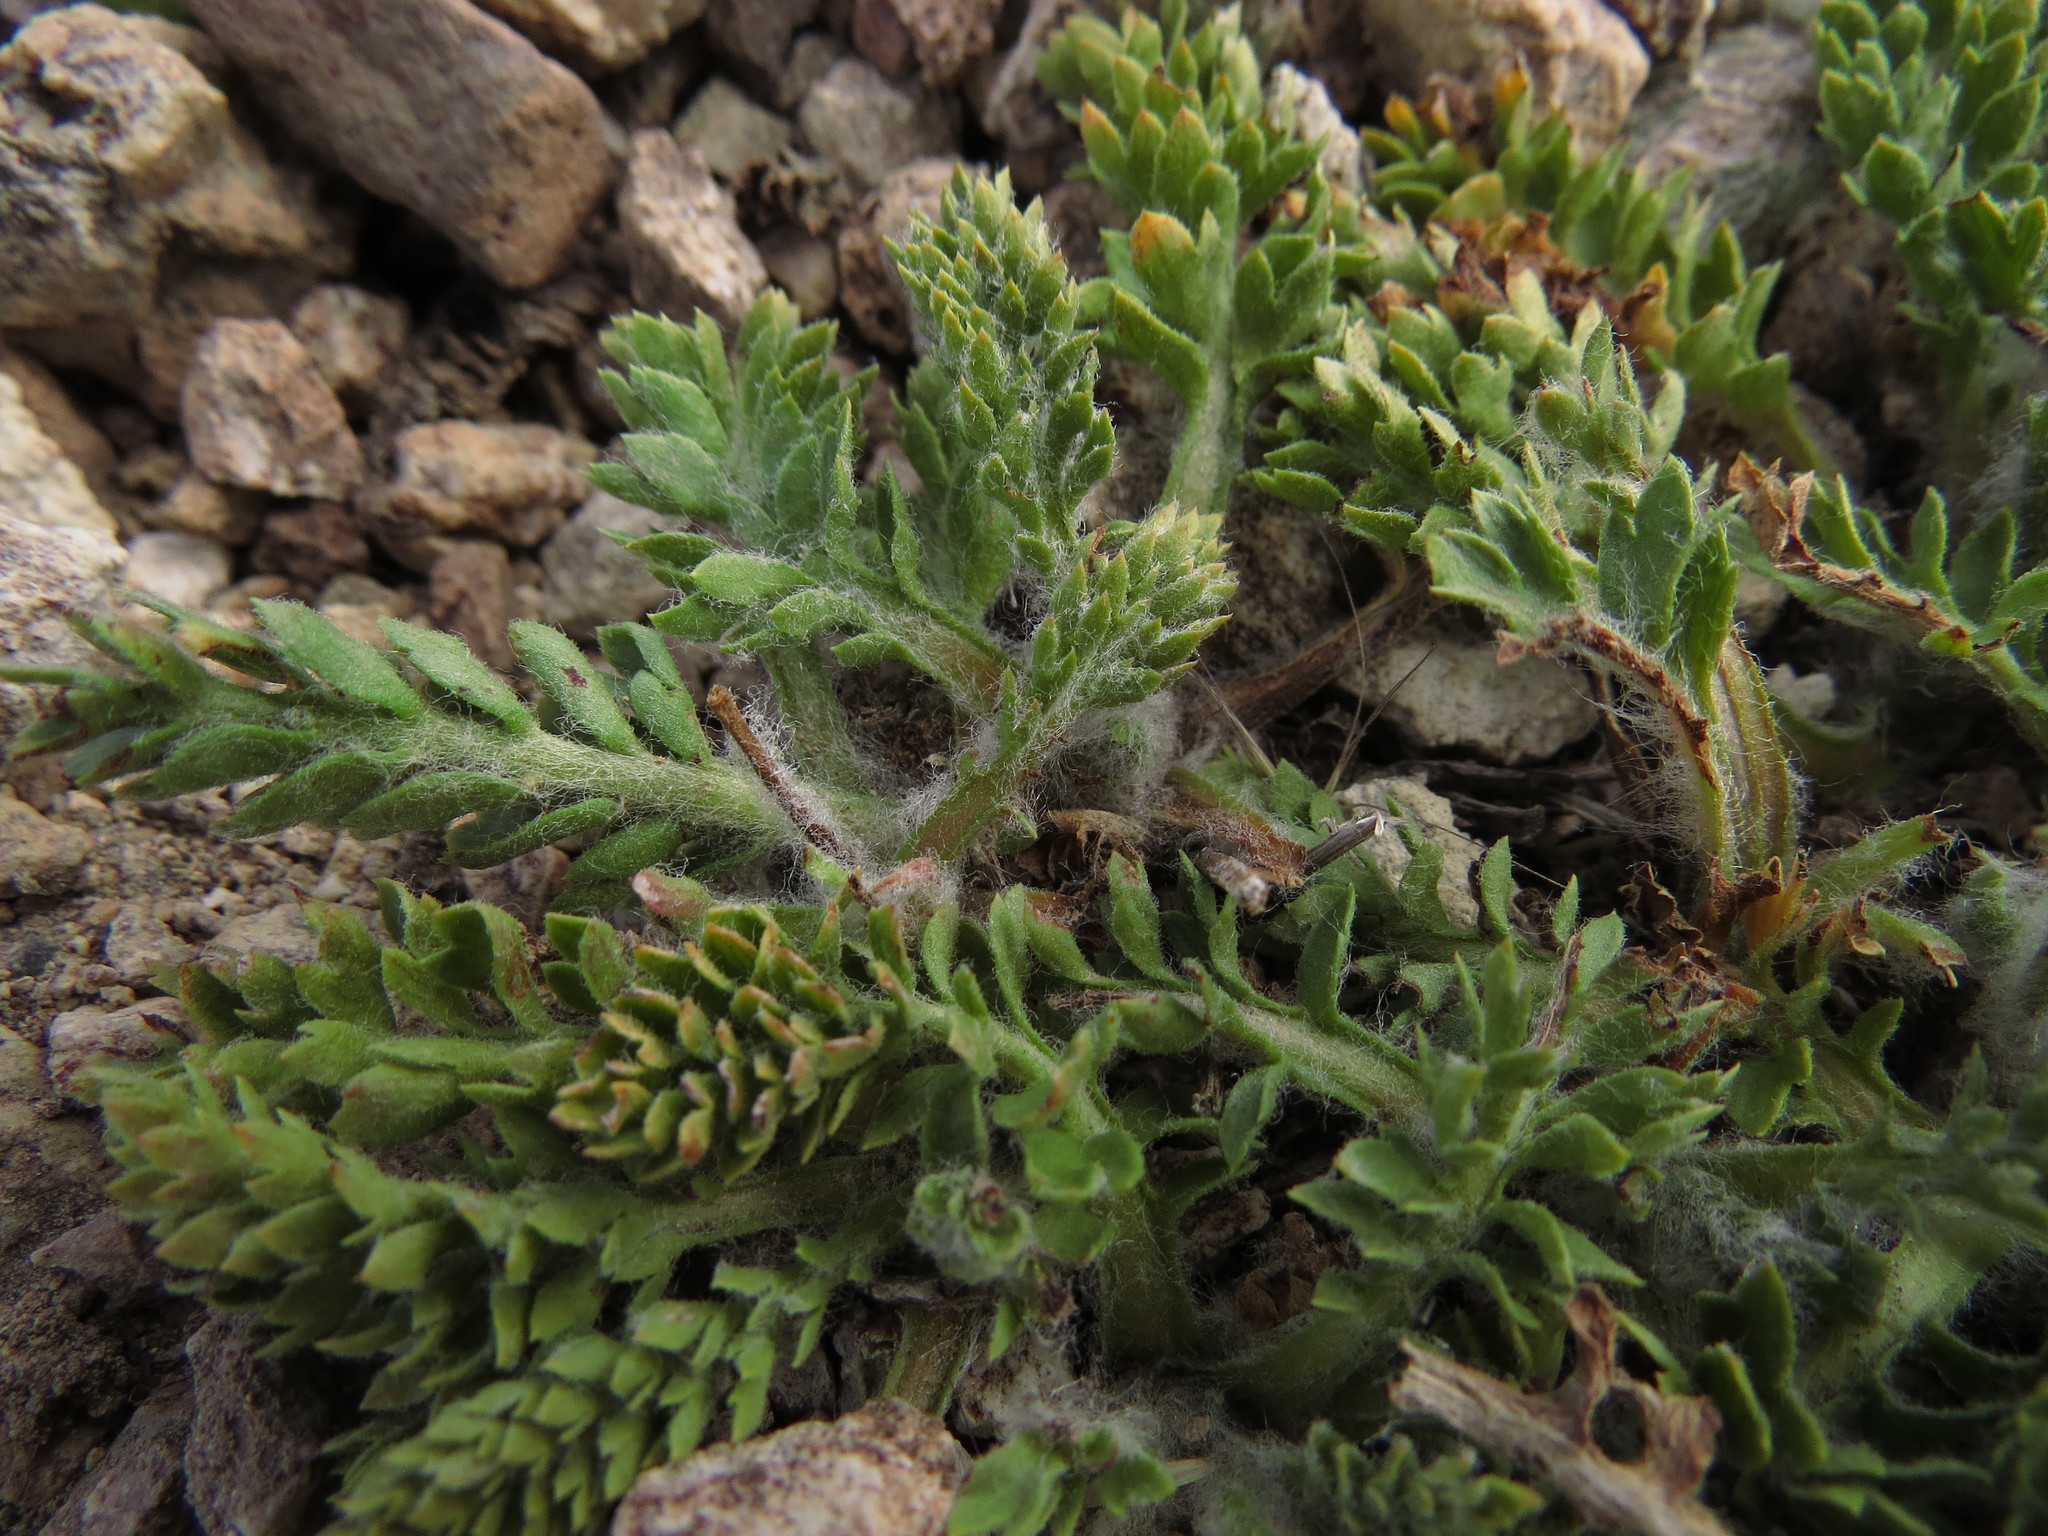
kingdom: Plantae
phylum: Tracheophyta
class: Magnoliopsida
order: Asterales
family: Asteraceae
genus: Leucheria
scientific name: Leucheria millefolium
